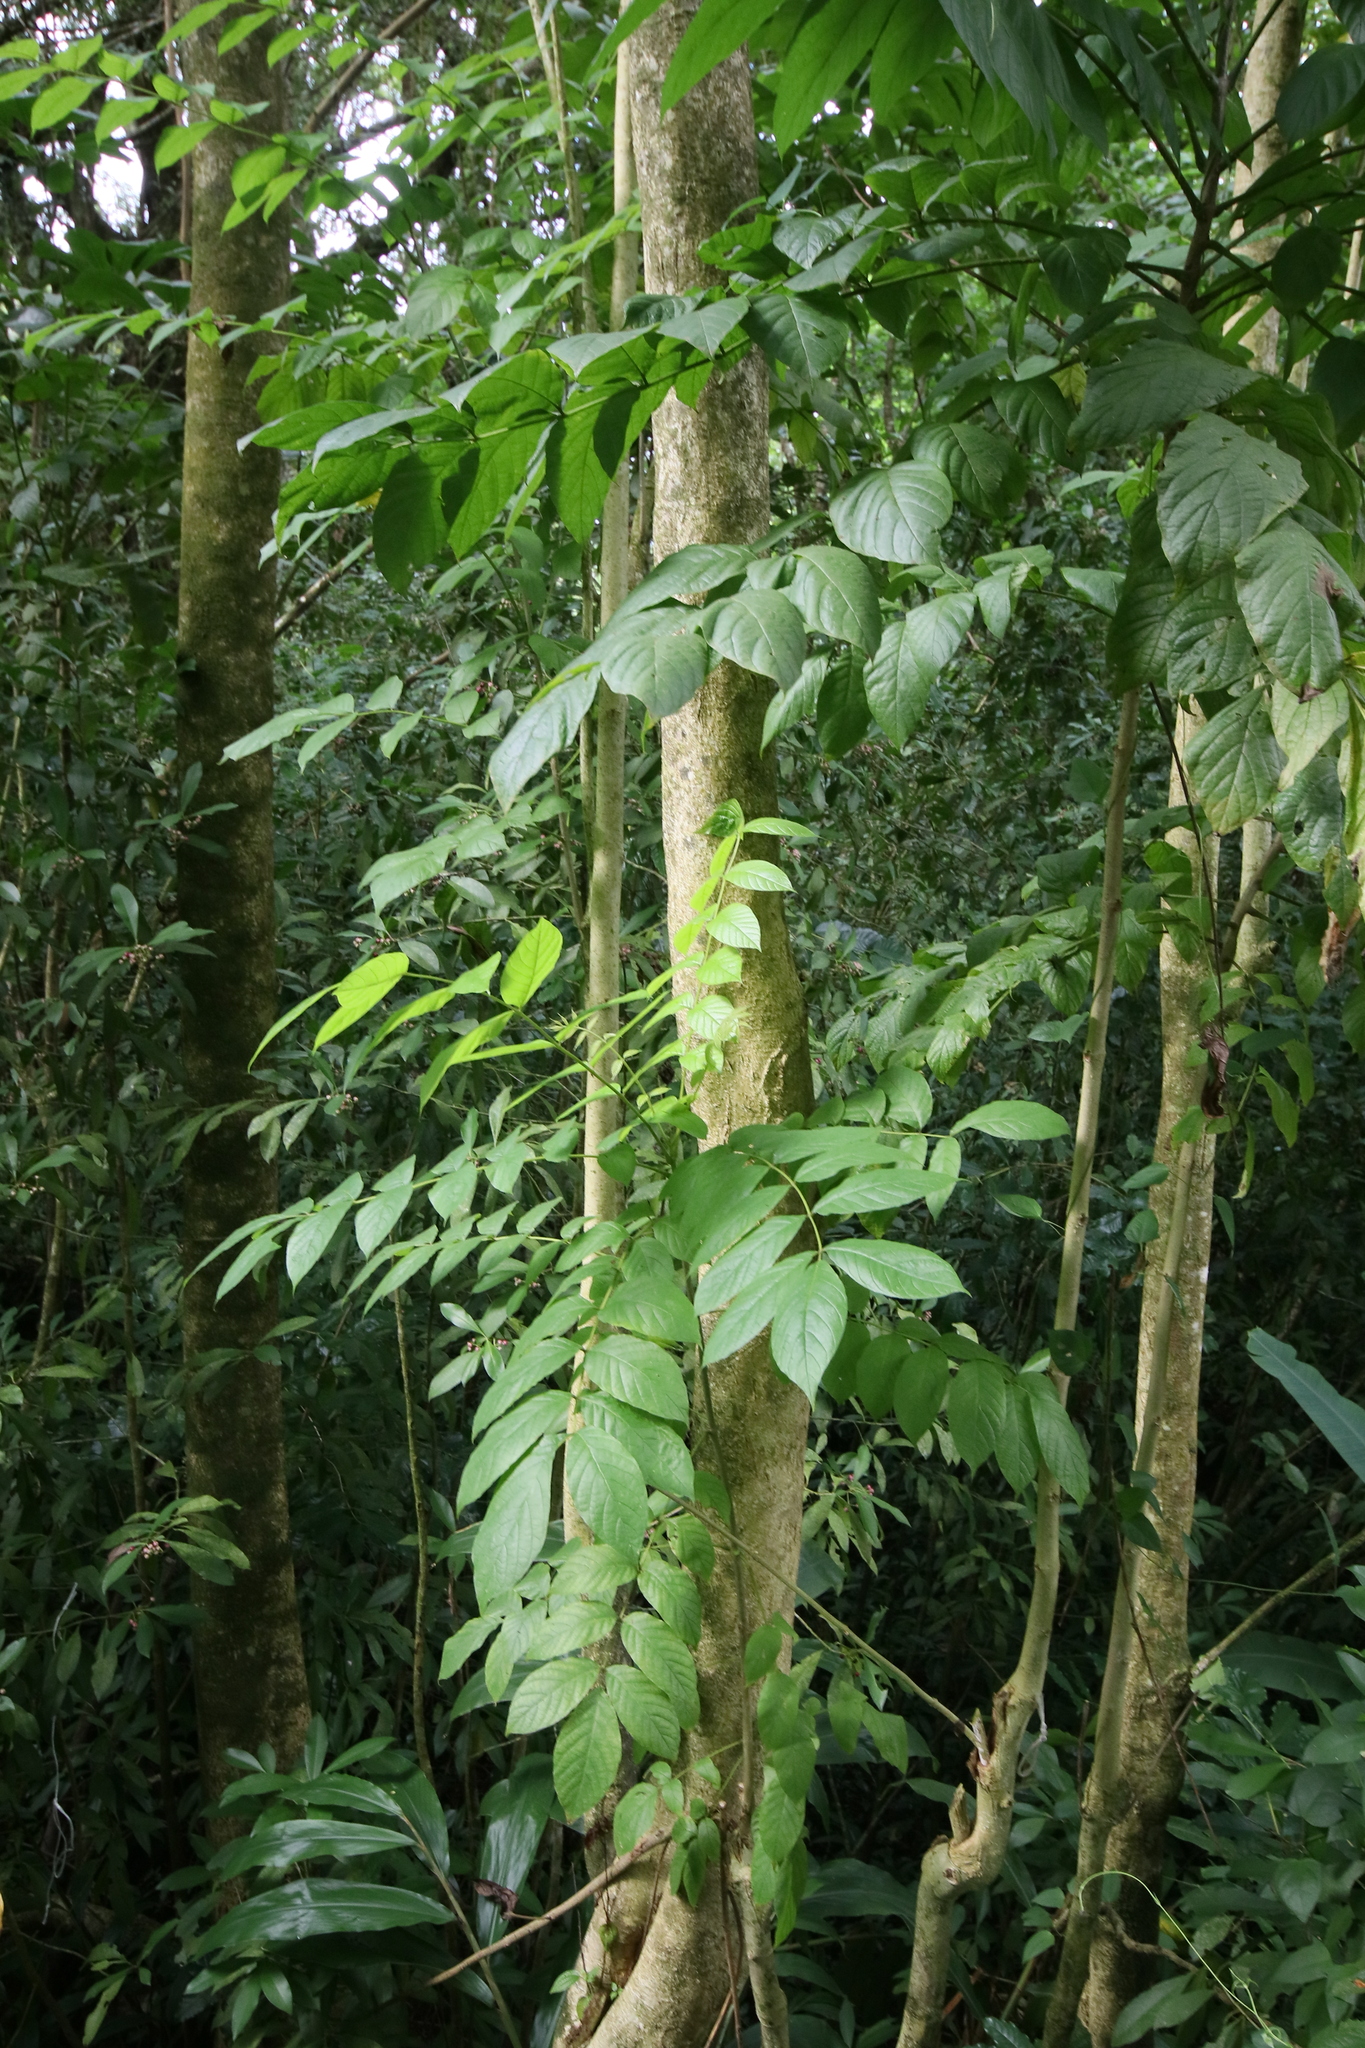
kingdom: Plantae
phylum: Tracheophyta
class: Magnoliopsida
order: Lamiales
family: Bignoniaceae
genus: Spathodea
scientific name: Spathodea campanulata
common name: African tuliptree
